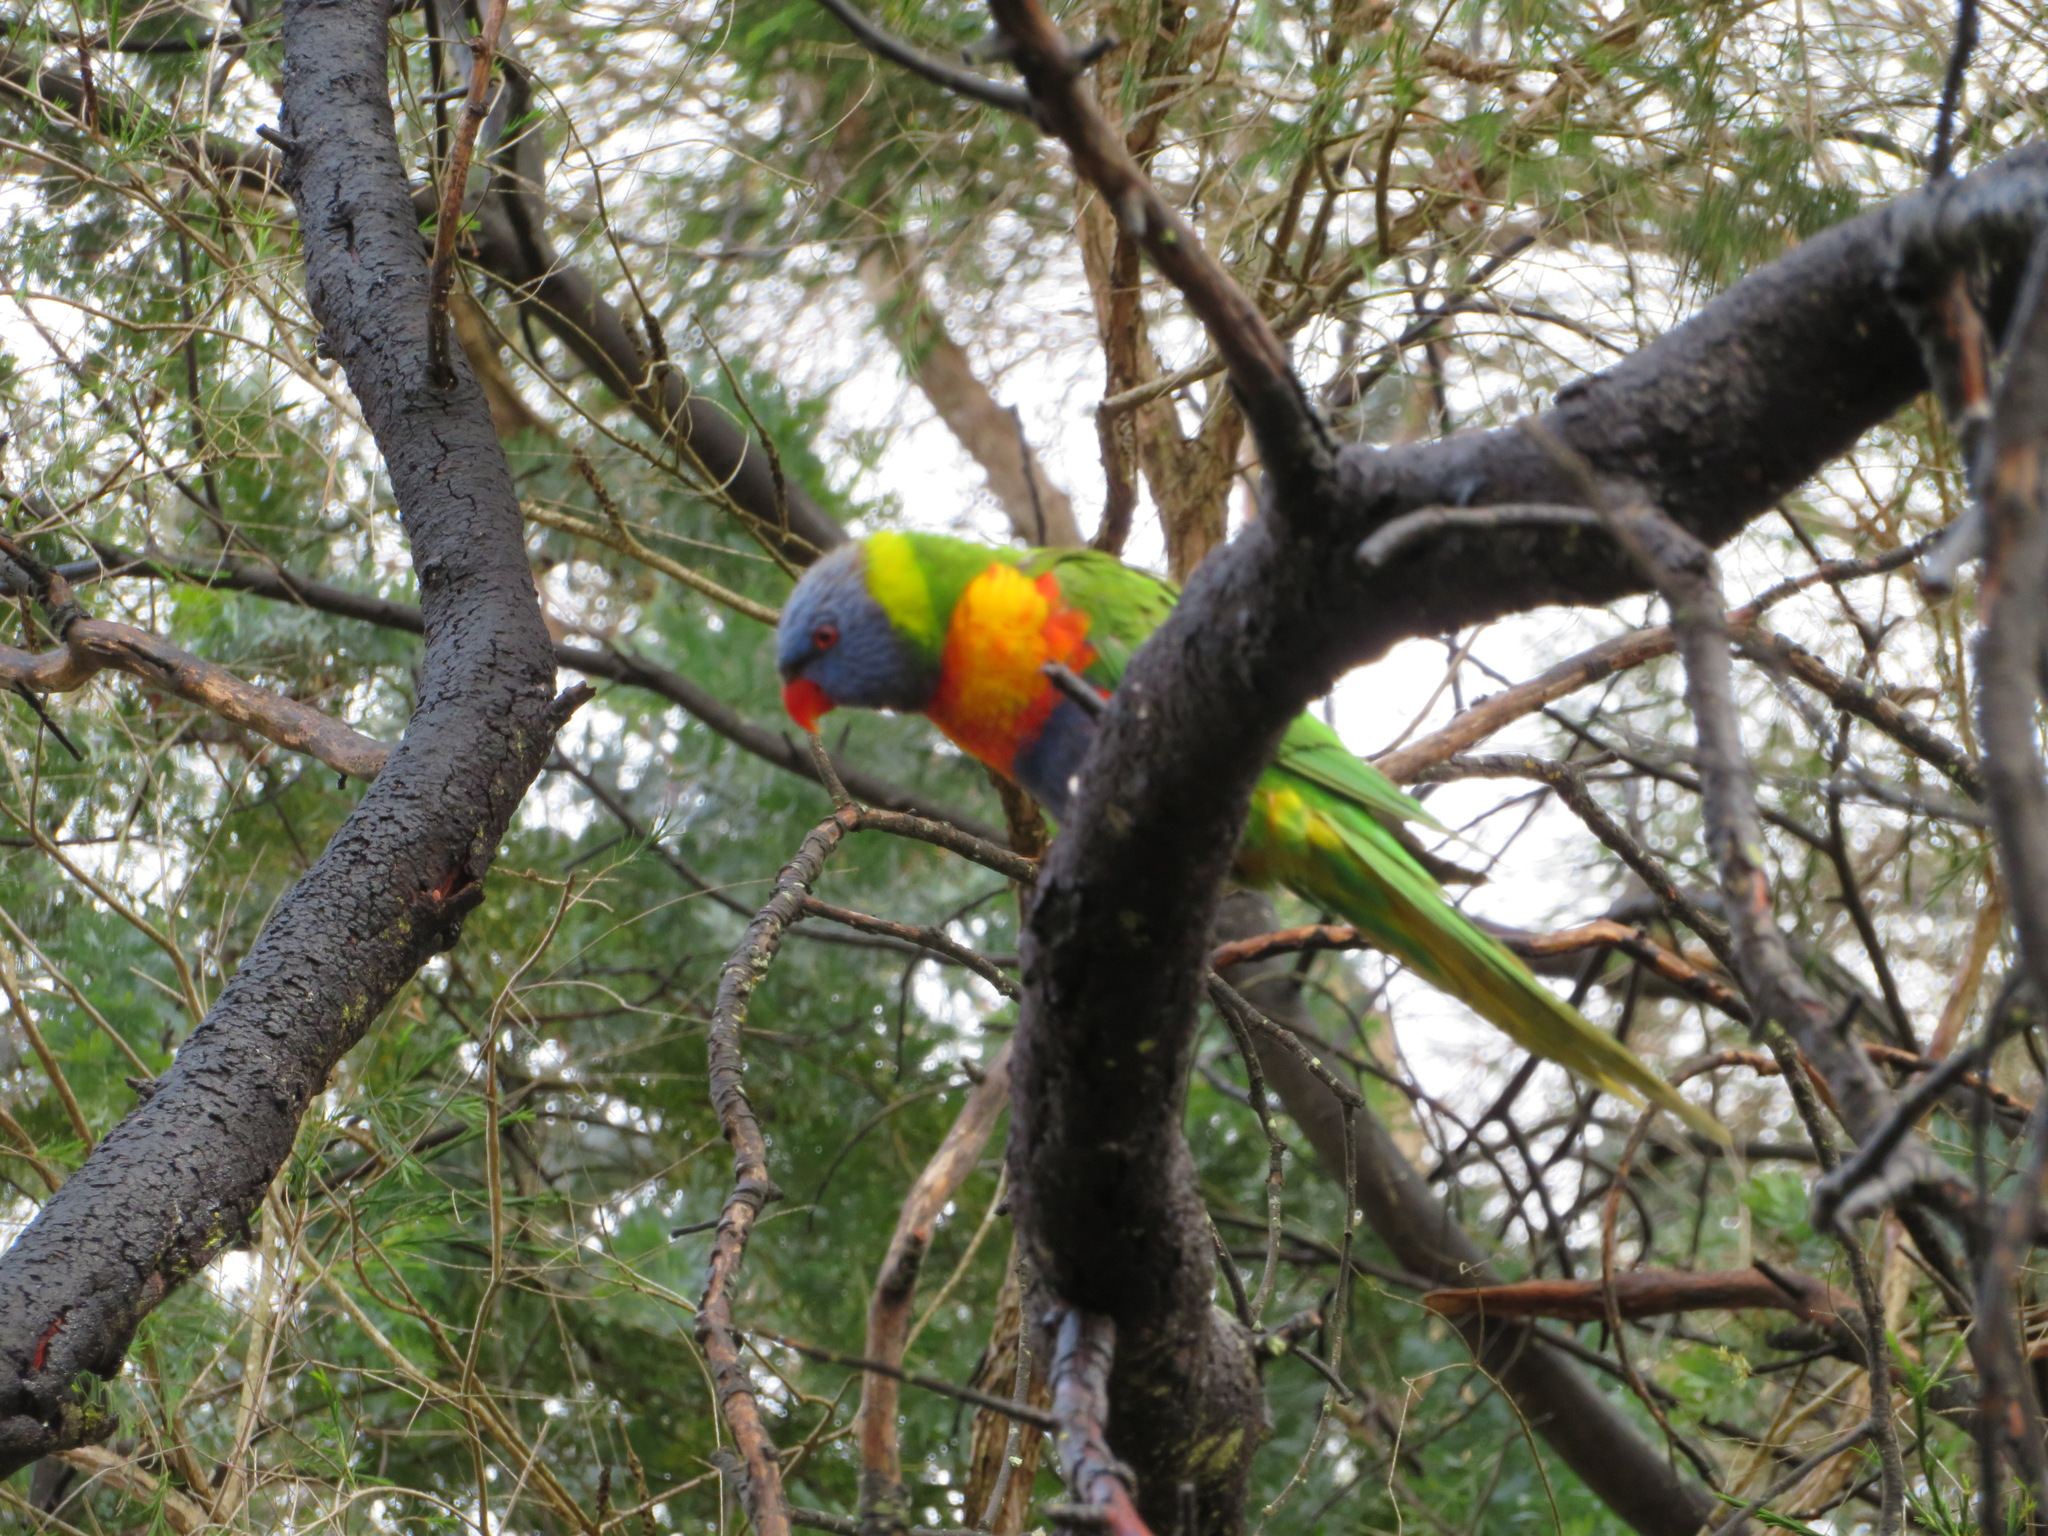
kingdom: Animalia
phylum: Chordata
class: Aves
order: Psittaciformes
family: Psittacidae
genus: Trichoglossus
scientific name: Trichoglossus haematodus
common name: Coconut lorikeet
